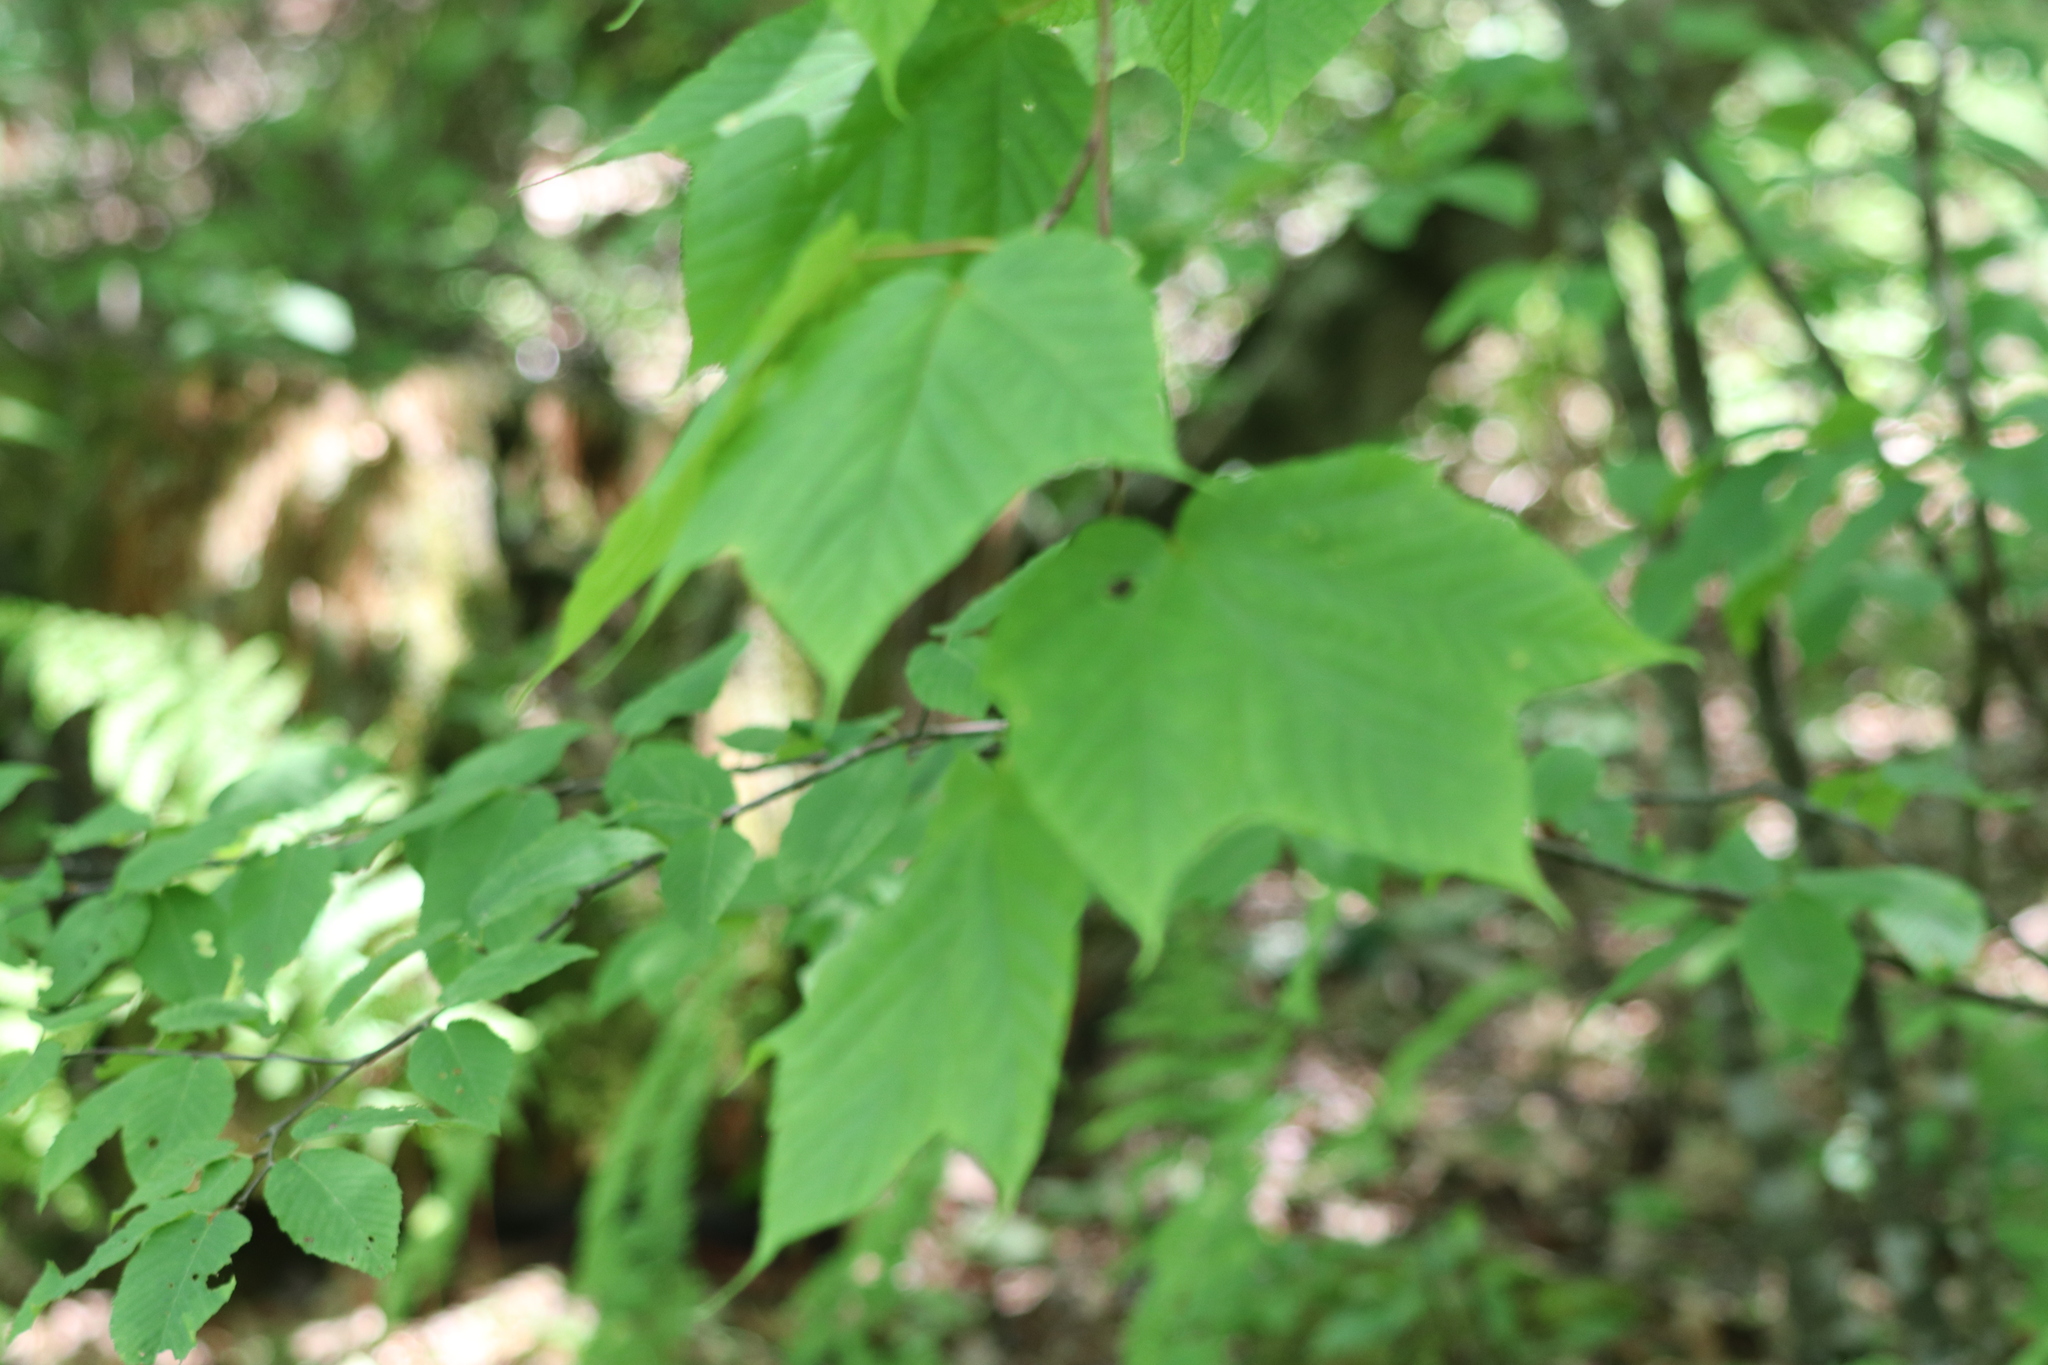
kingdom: Plantae
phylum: Tracheophyta
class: Magnoliopsida
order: Sapindales
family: Sapindaceae
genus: Acer
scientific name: Acer pensylvanicum
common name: Moosewood
